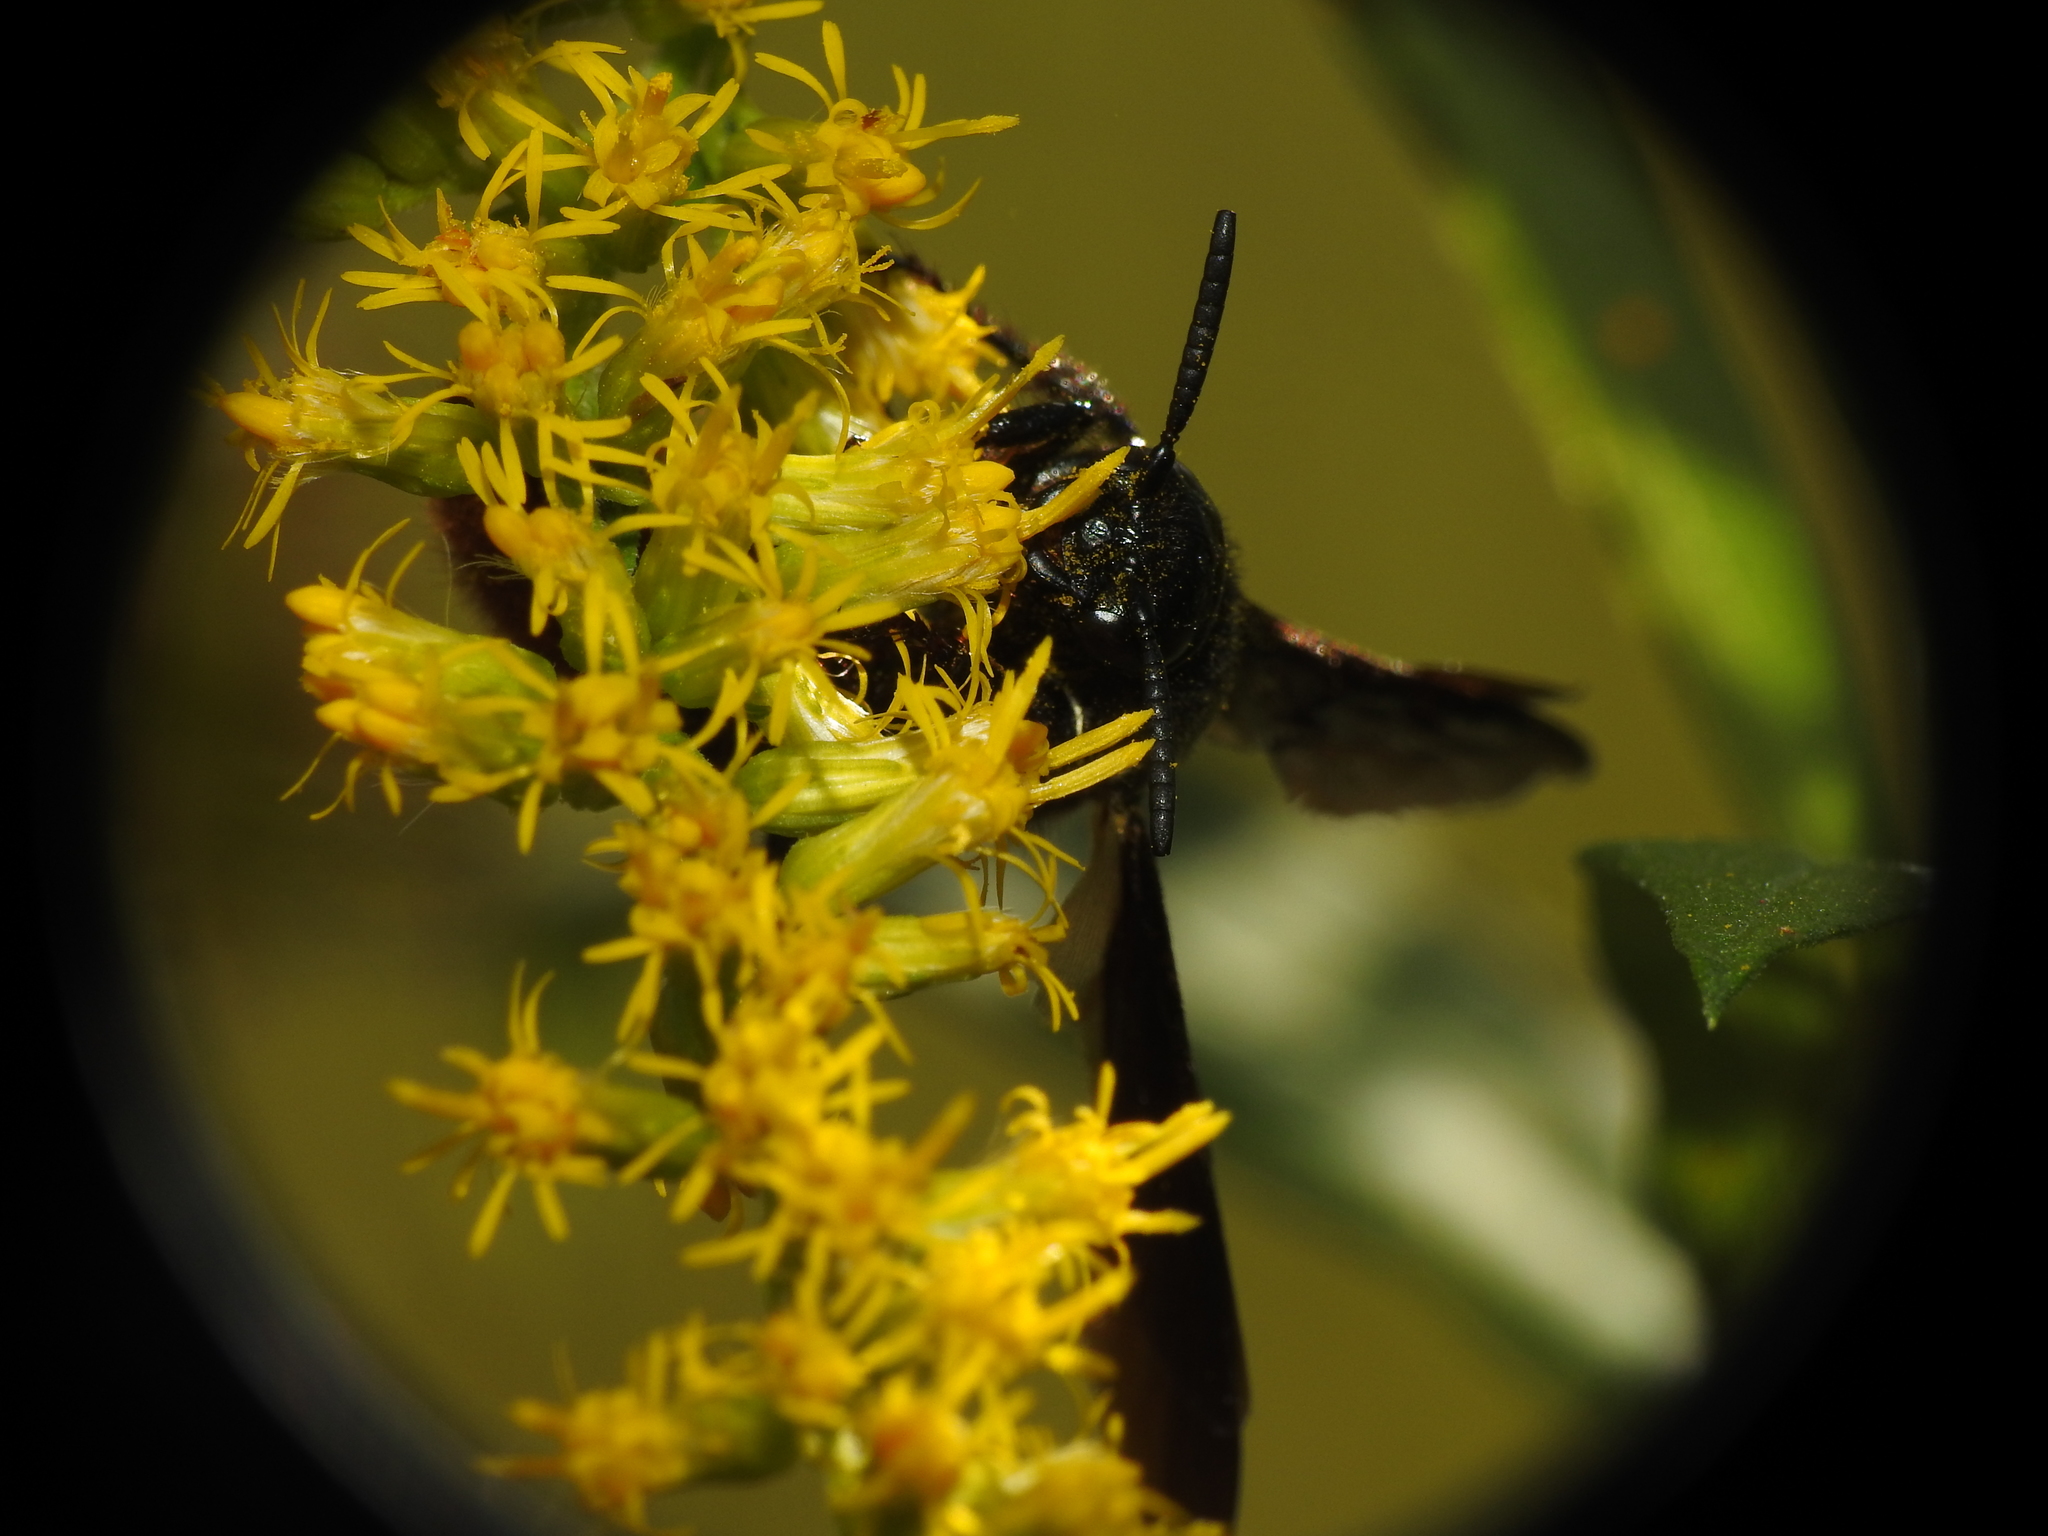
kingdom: Animalia
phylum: Arthropoda
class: Insecta
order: Hymenoptera
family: Scoliidae
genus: Scolia
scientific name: Scolia dubia
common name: Blue-winged scoliid wasp
